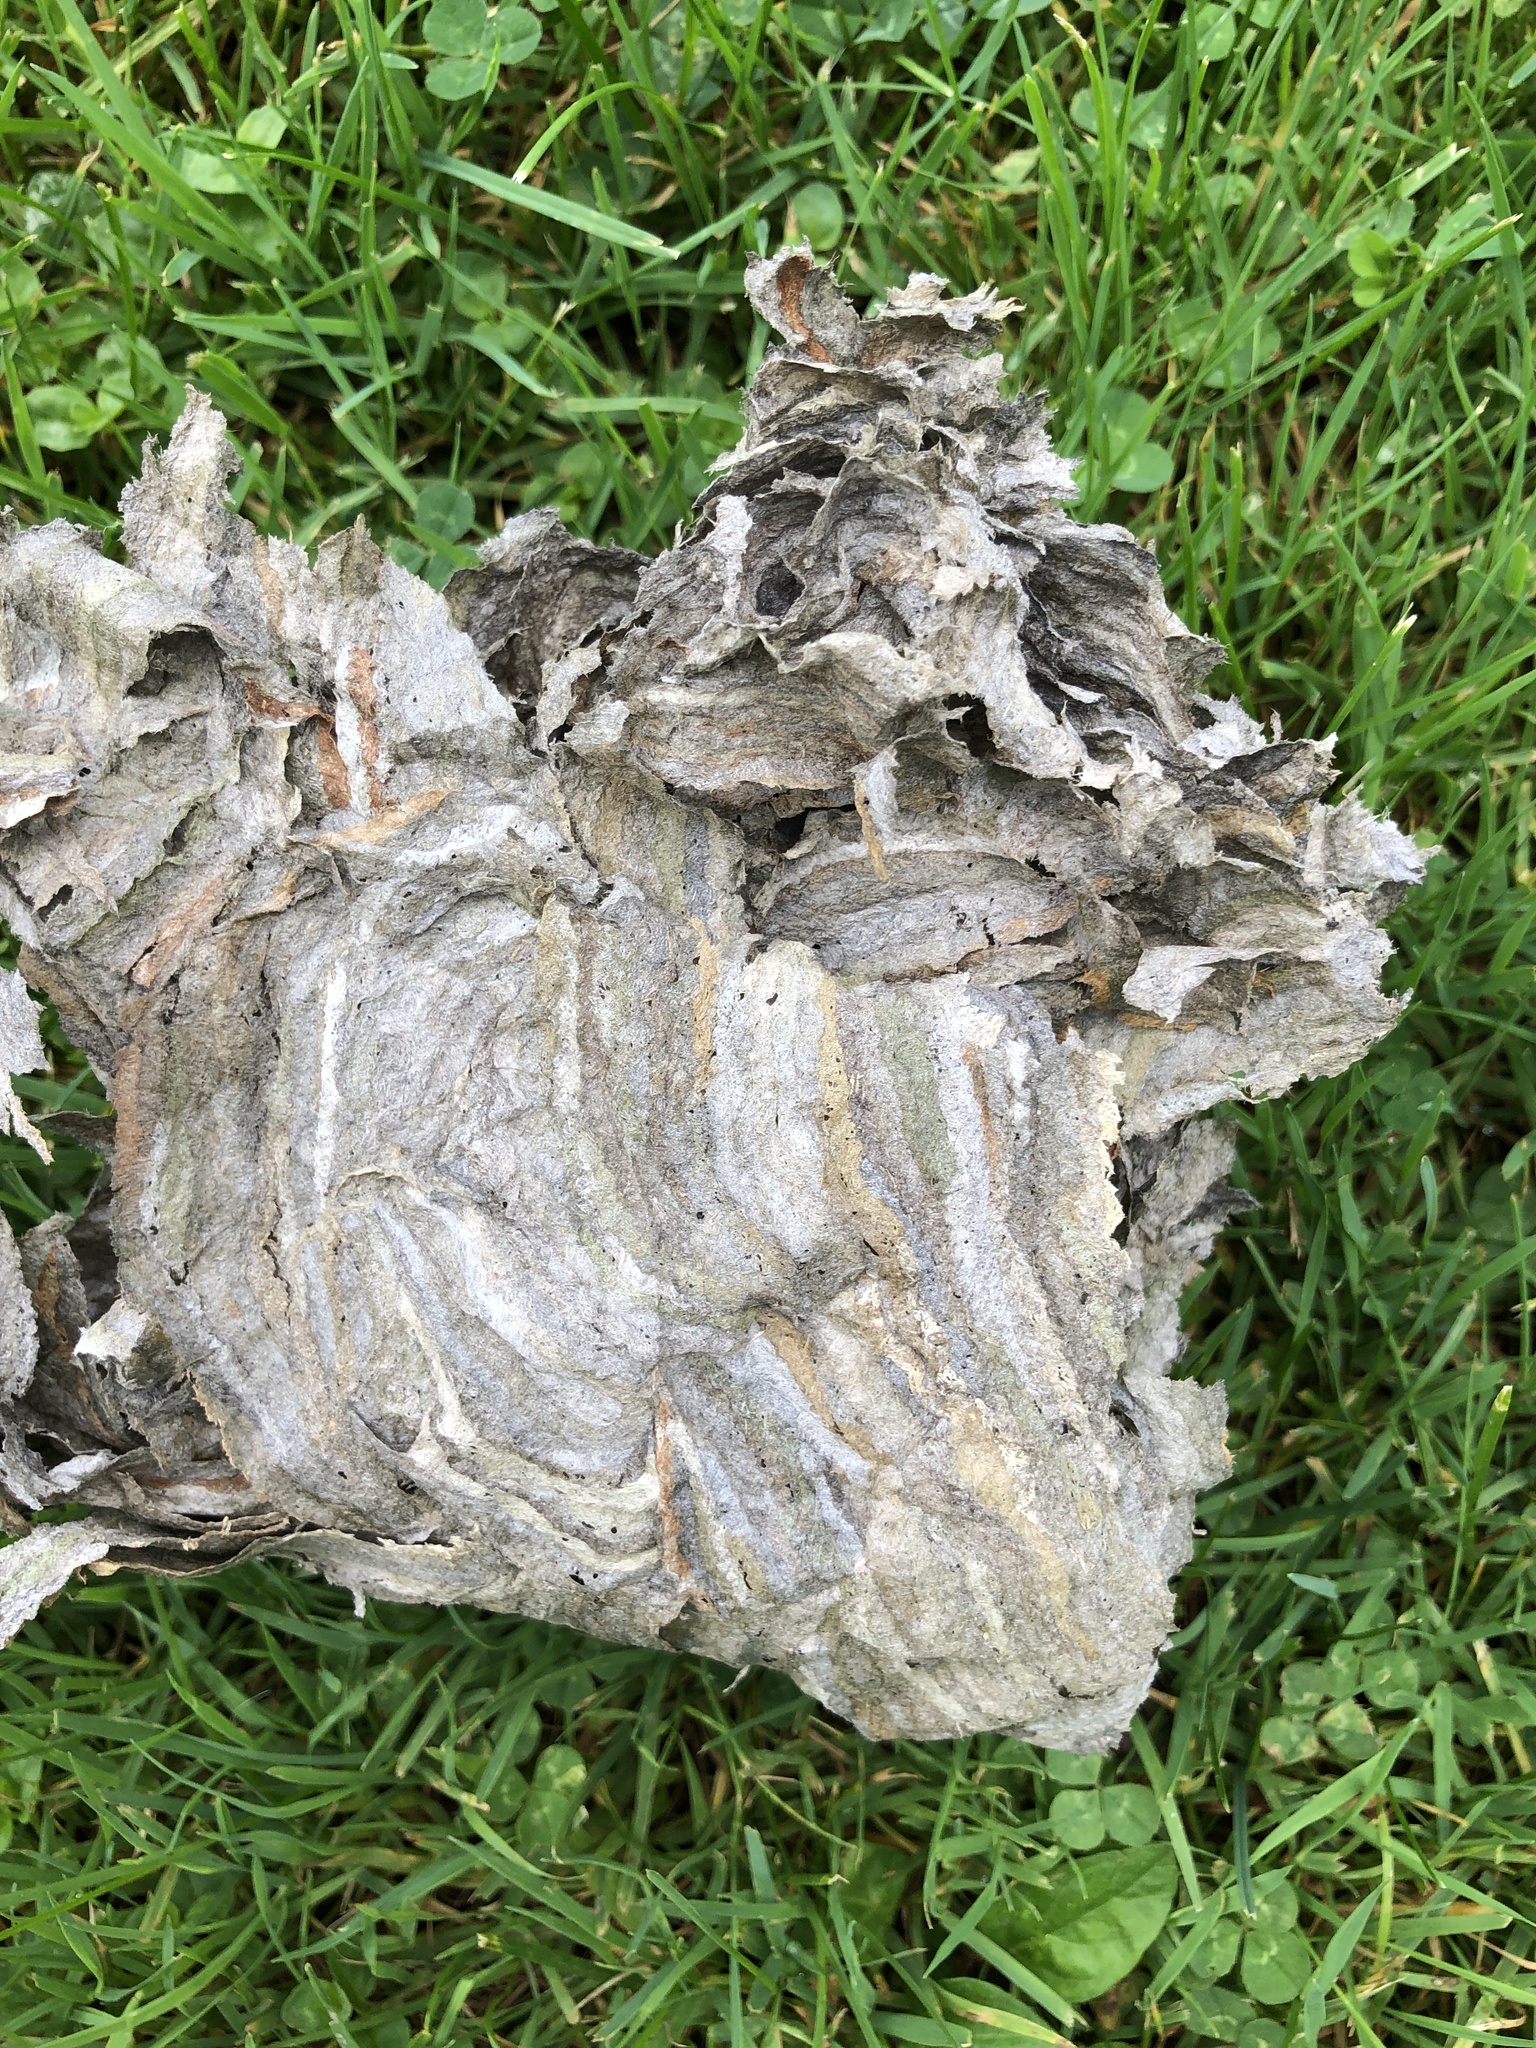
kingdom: Animalia
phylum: Arthropoda
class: Insecta
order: Hymenoptera
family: Vespidae
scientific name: Vespidae
